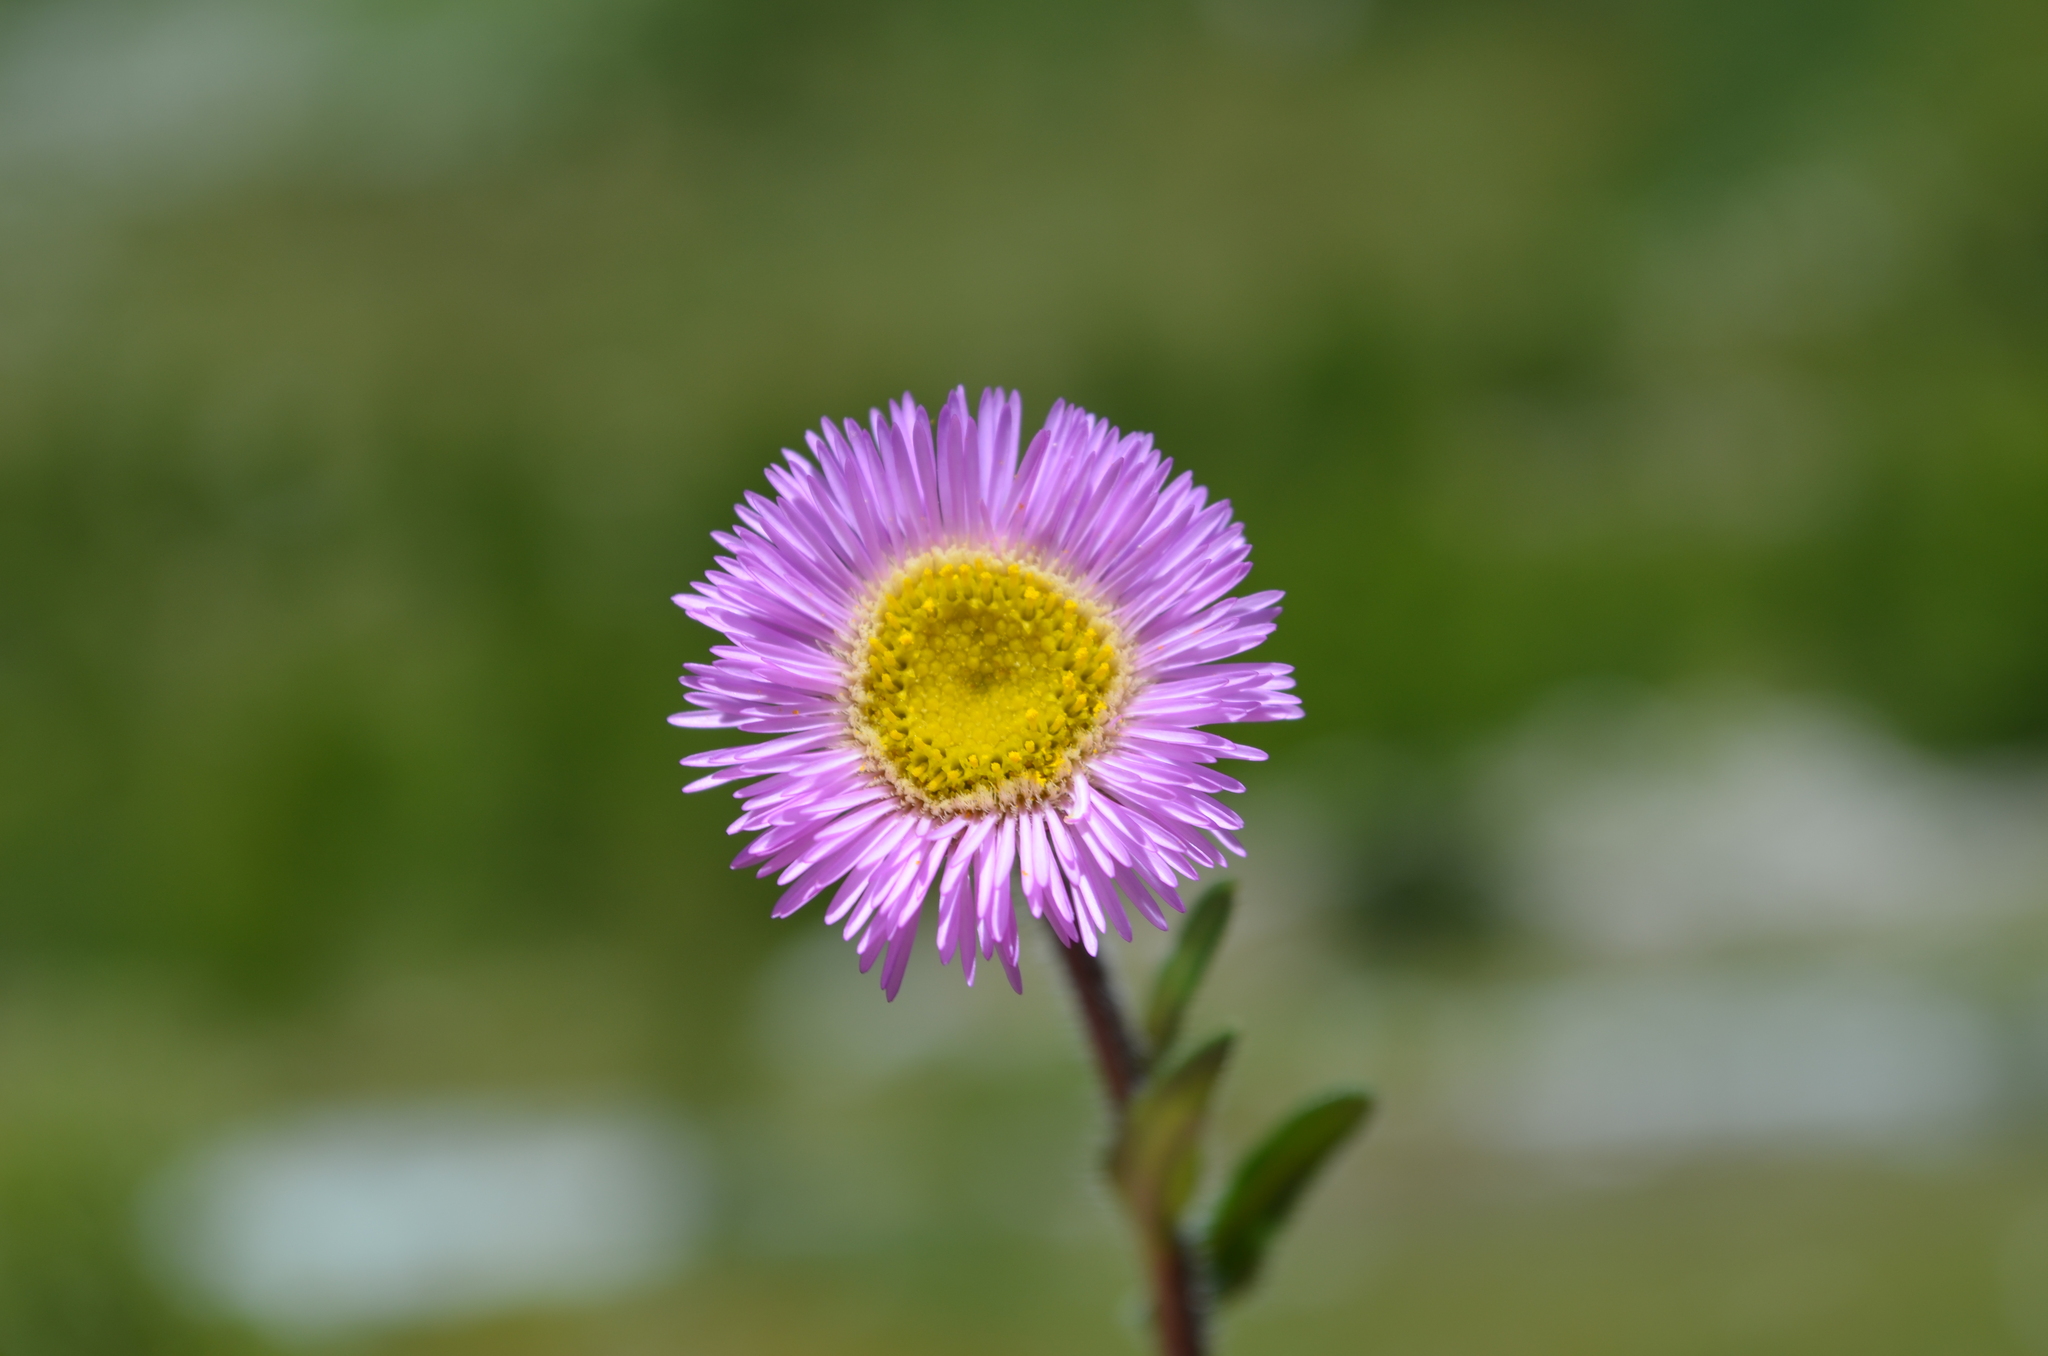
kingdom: Plantae
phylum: Tracheophyta
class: Magnoliopsida
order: Asterales
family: Asteraceae
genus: Erigeron
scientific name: Erigeron alpinus
